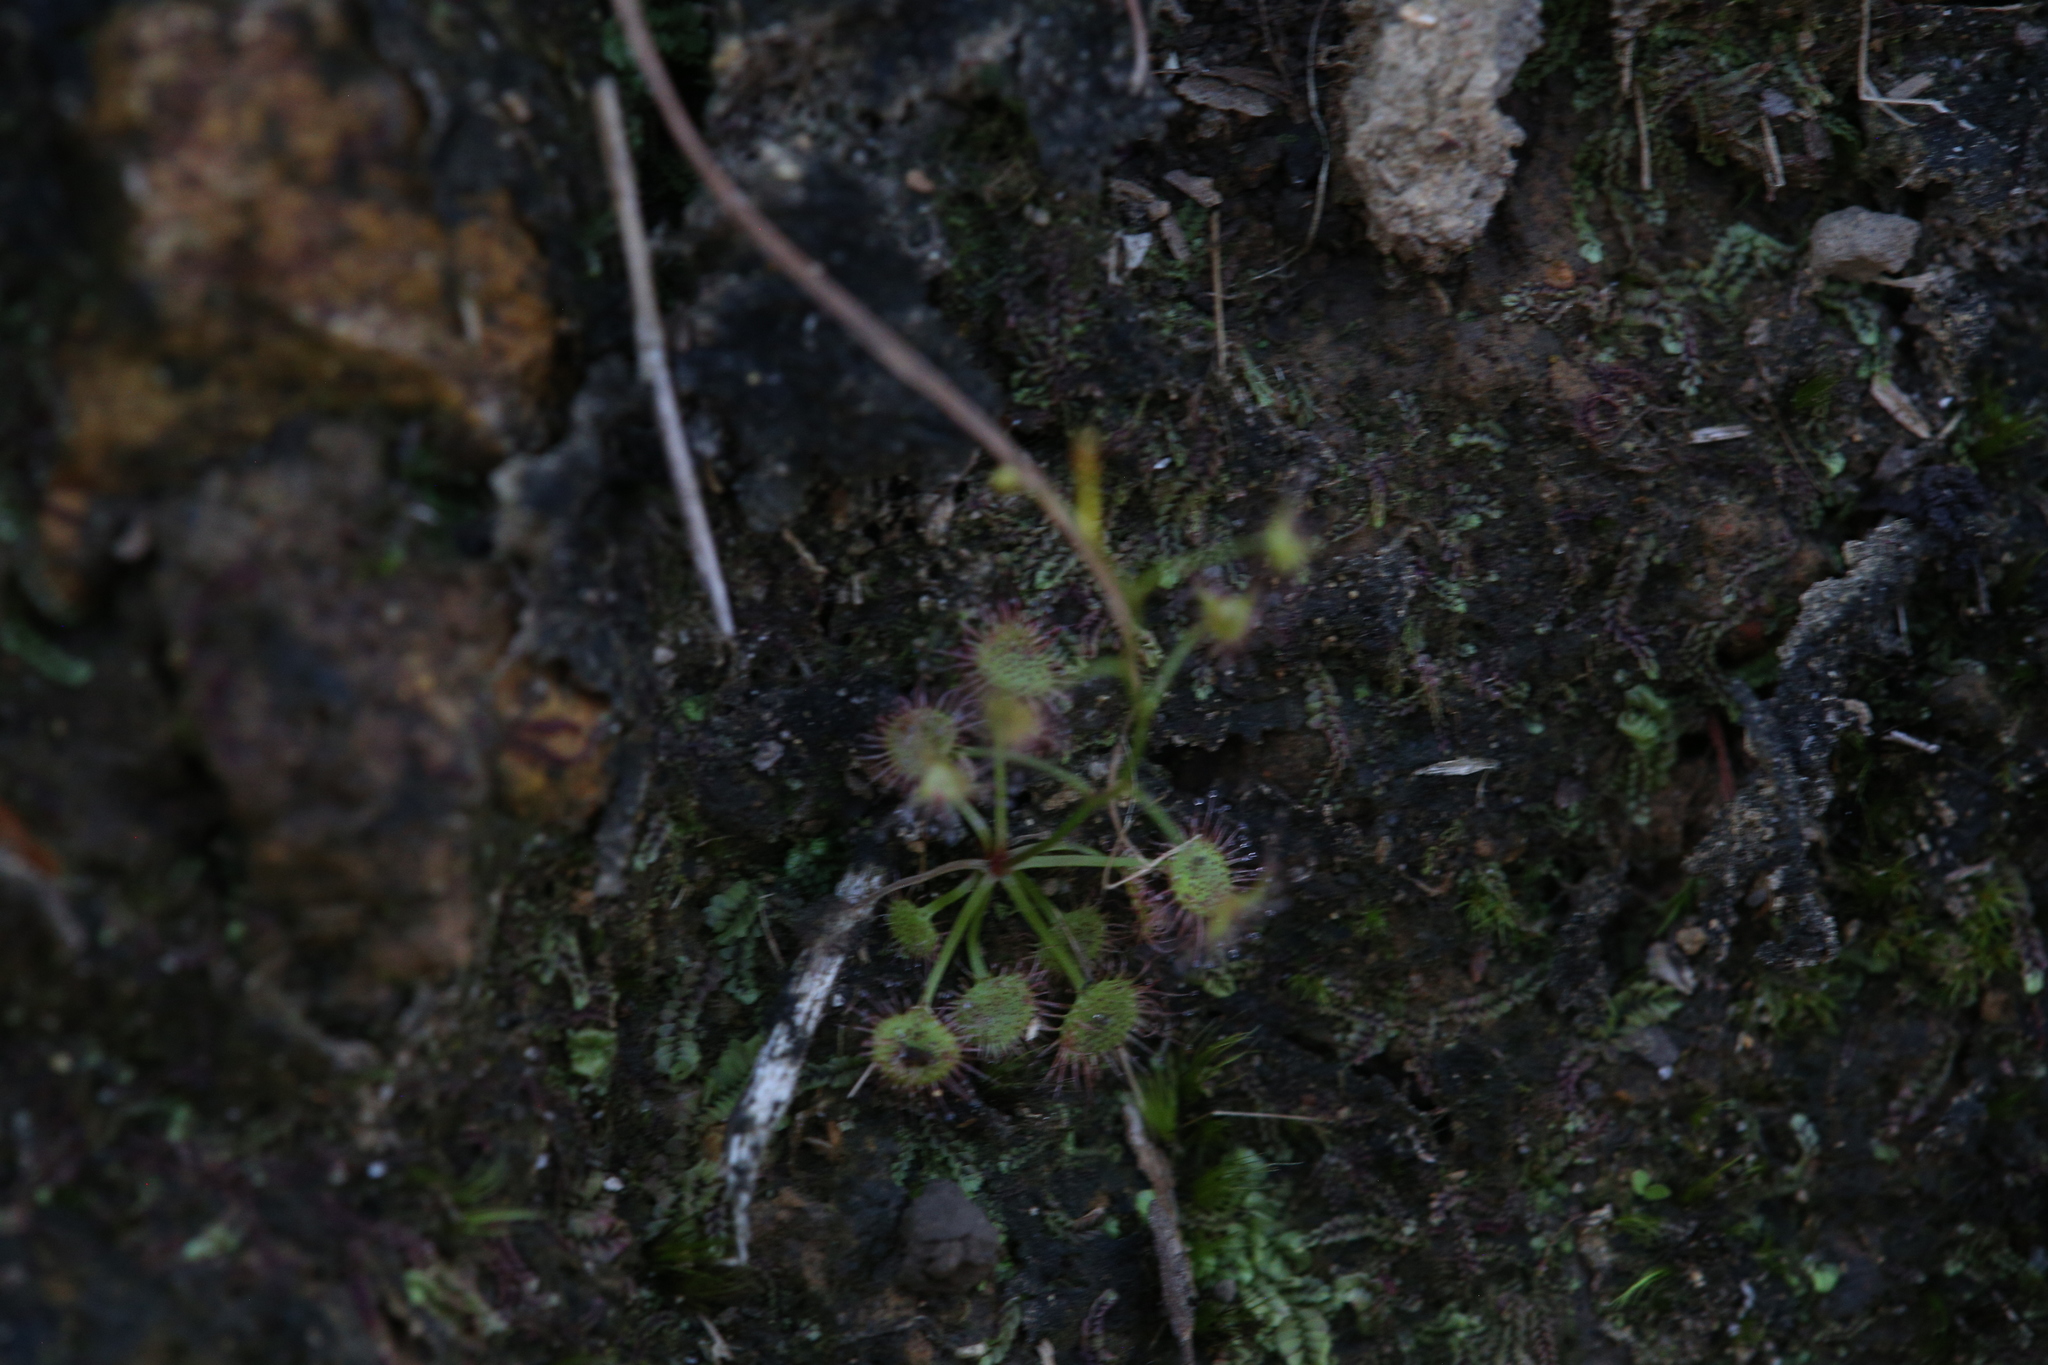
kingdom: Plantae
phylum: Tracheophyta
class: Magnoliopsida
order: Caryophyllales
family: Droseraceae
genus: Drosera
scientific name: Drosera peltata
